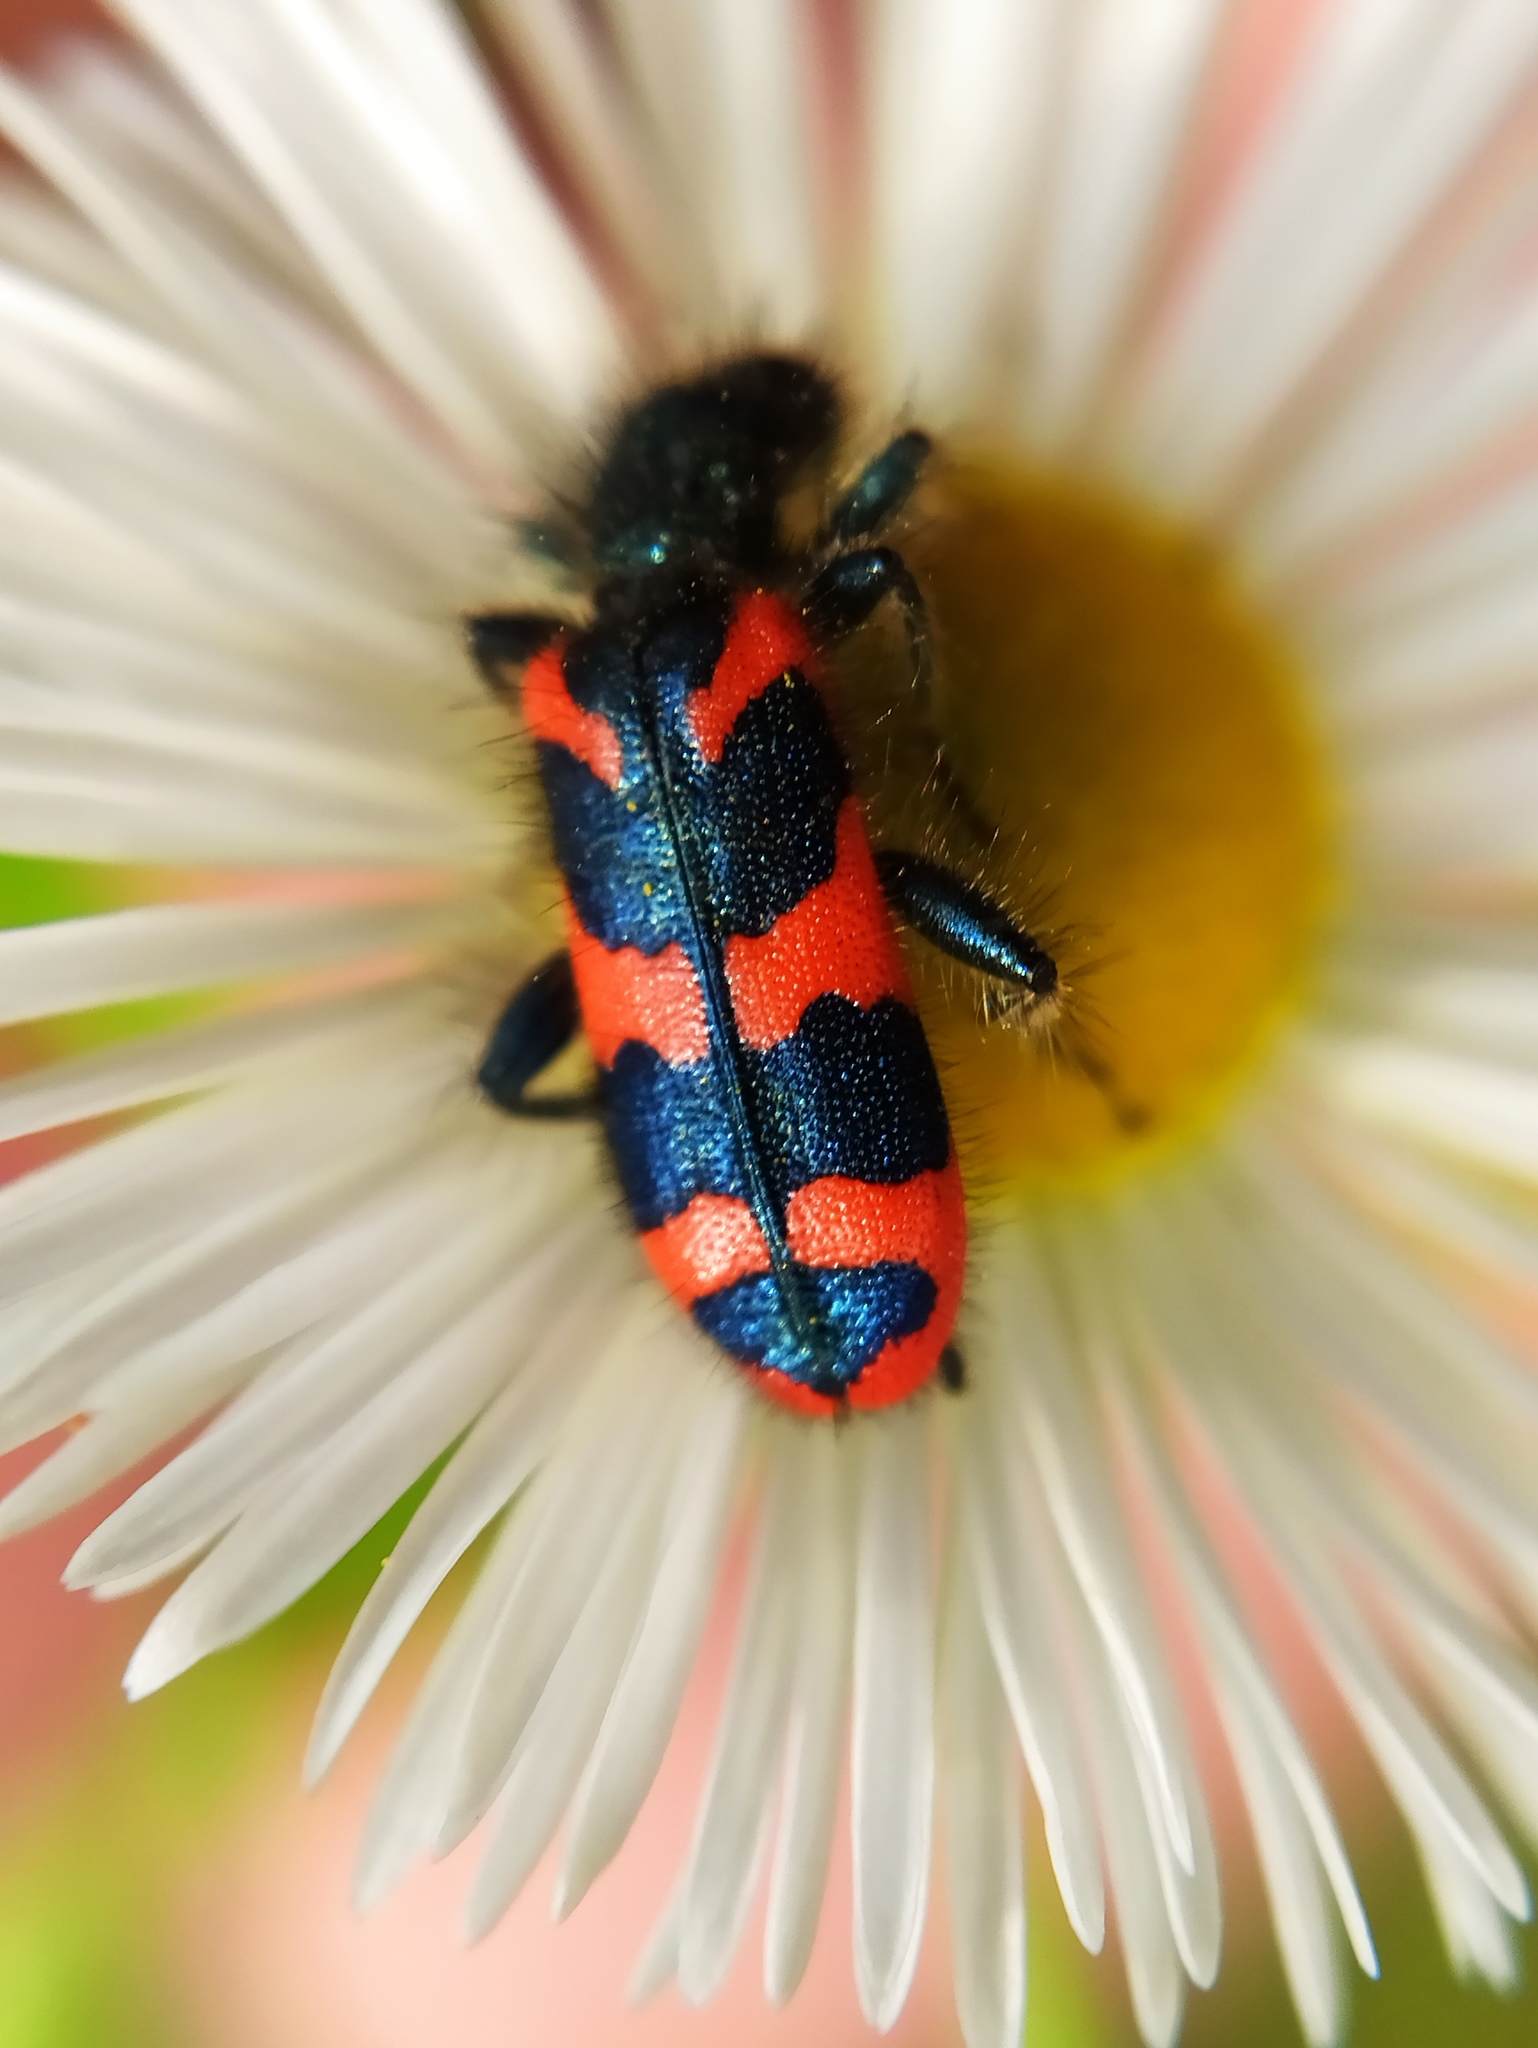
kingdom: Animalia
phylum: Arthropoda
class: Insecta
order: Coleoptera
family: Cleridae
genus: Trichodes
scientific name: Trichodes alvearius
